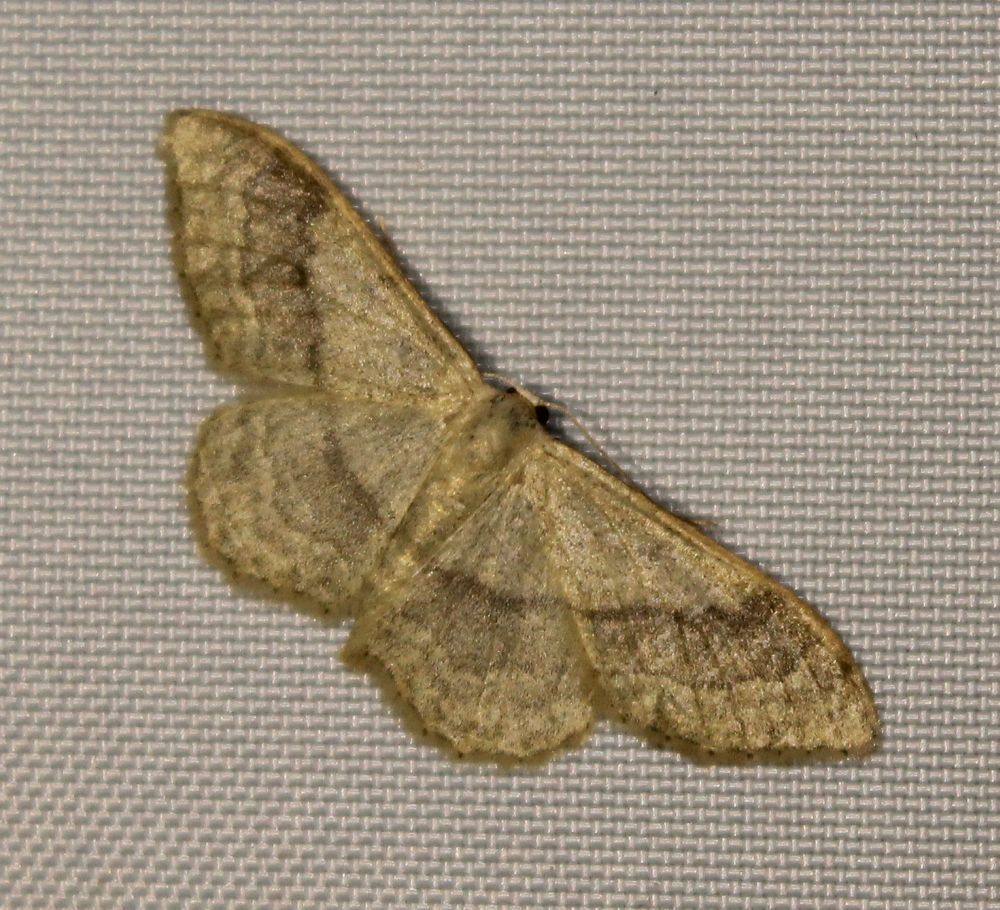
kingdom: Animalia
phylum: Arthropoda
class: Insecta
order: Lepidoptera
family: Geometridae
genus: Idaea
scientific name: Idaea aversata
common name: Riband wave
